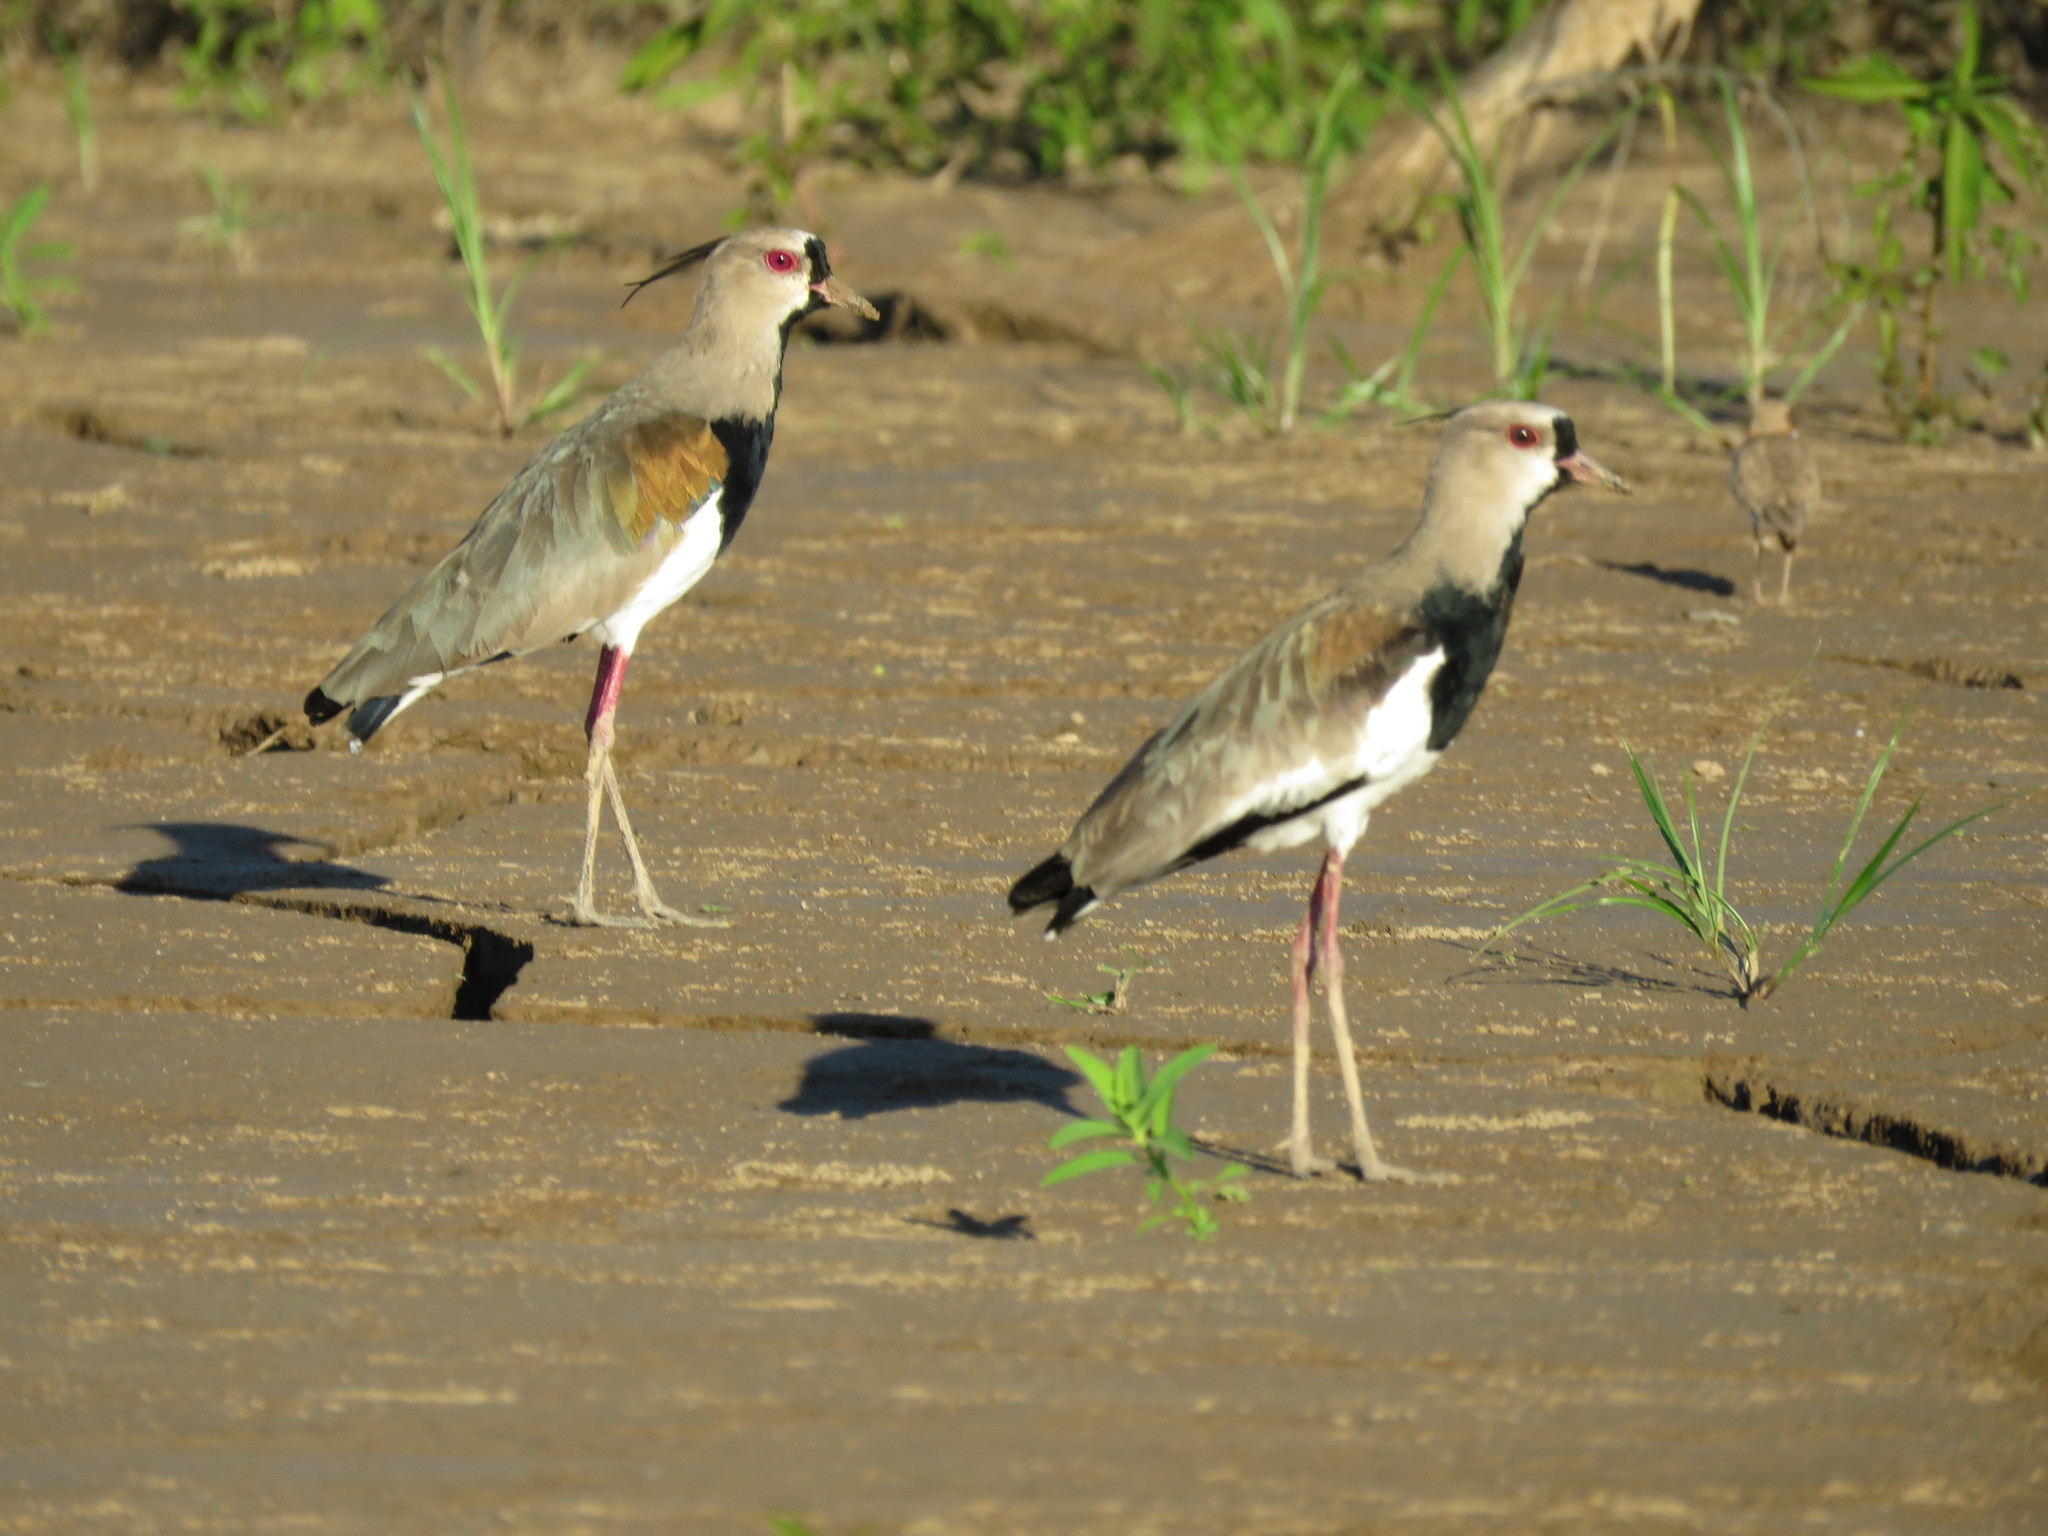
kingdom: Animalia
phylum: Chordata
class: Aves
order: Charadriiformes
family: Charadriidae
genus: Vanellus
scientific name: Vanellus chilensis
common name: Southern lapwing
